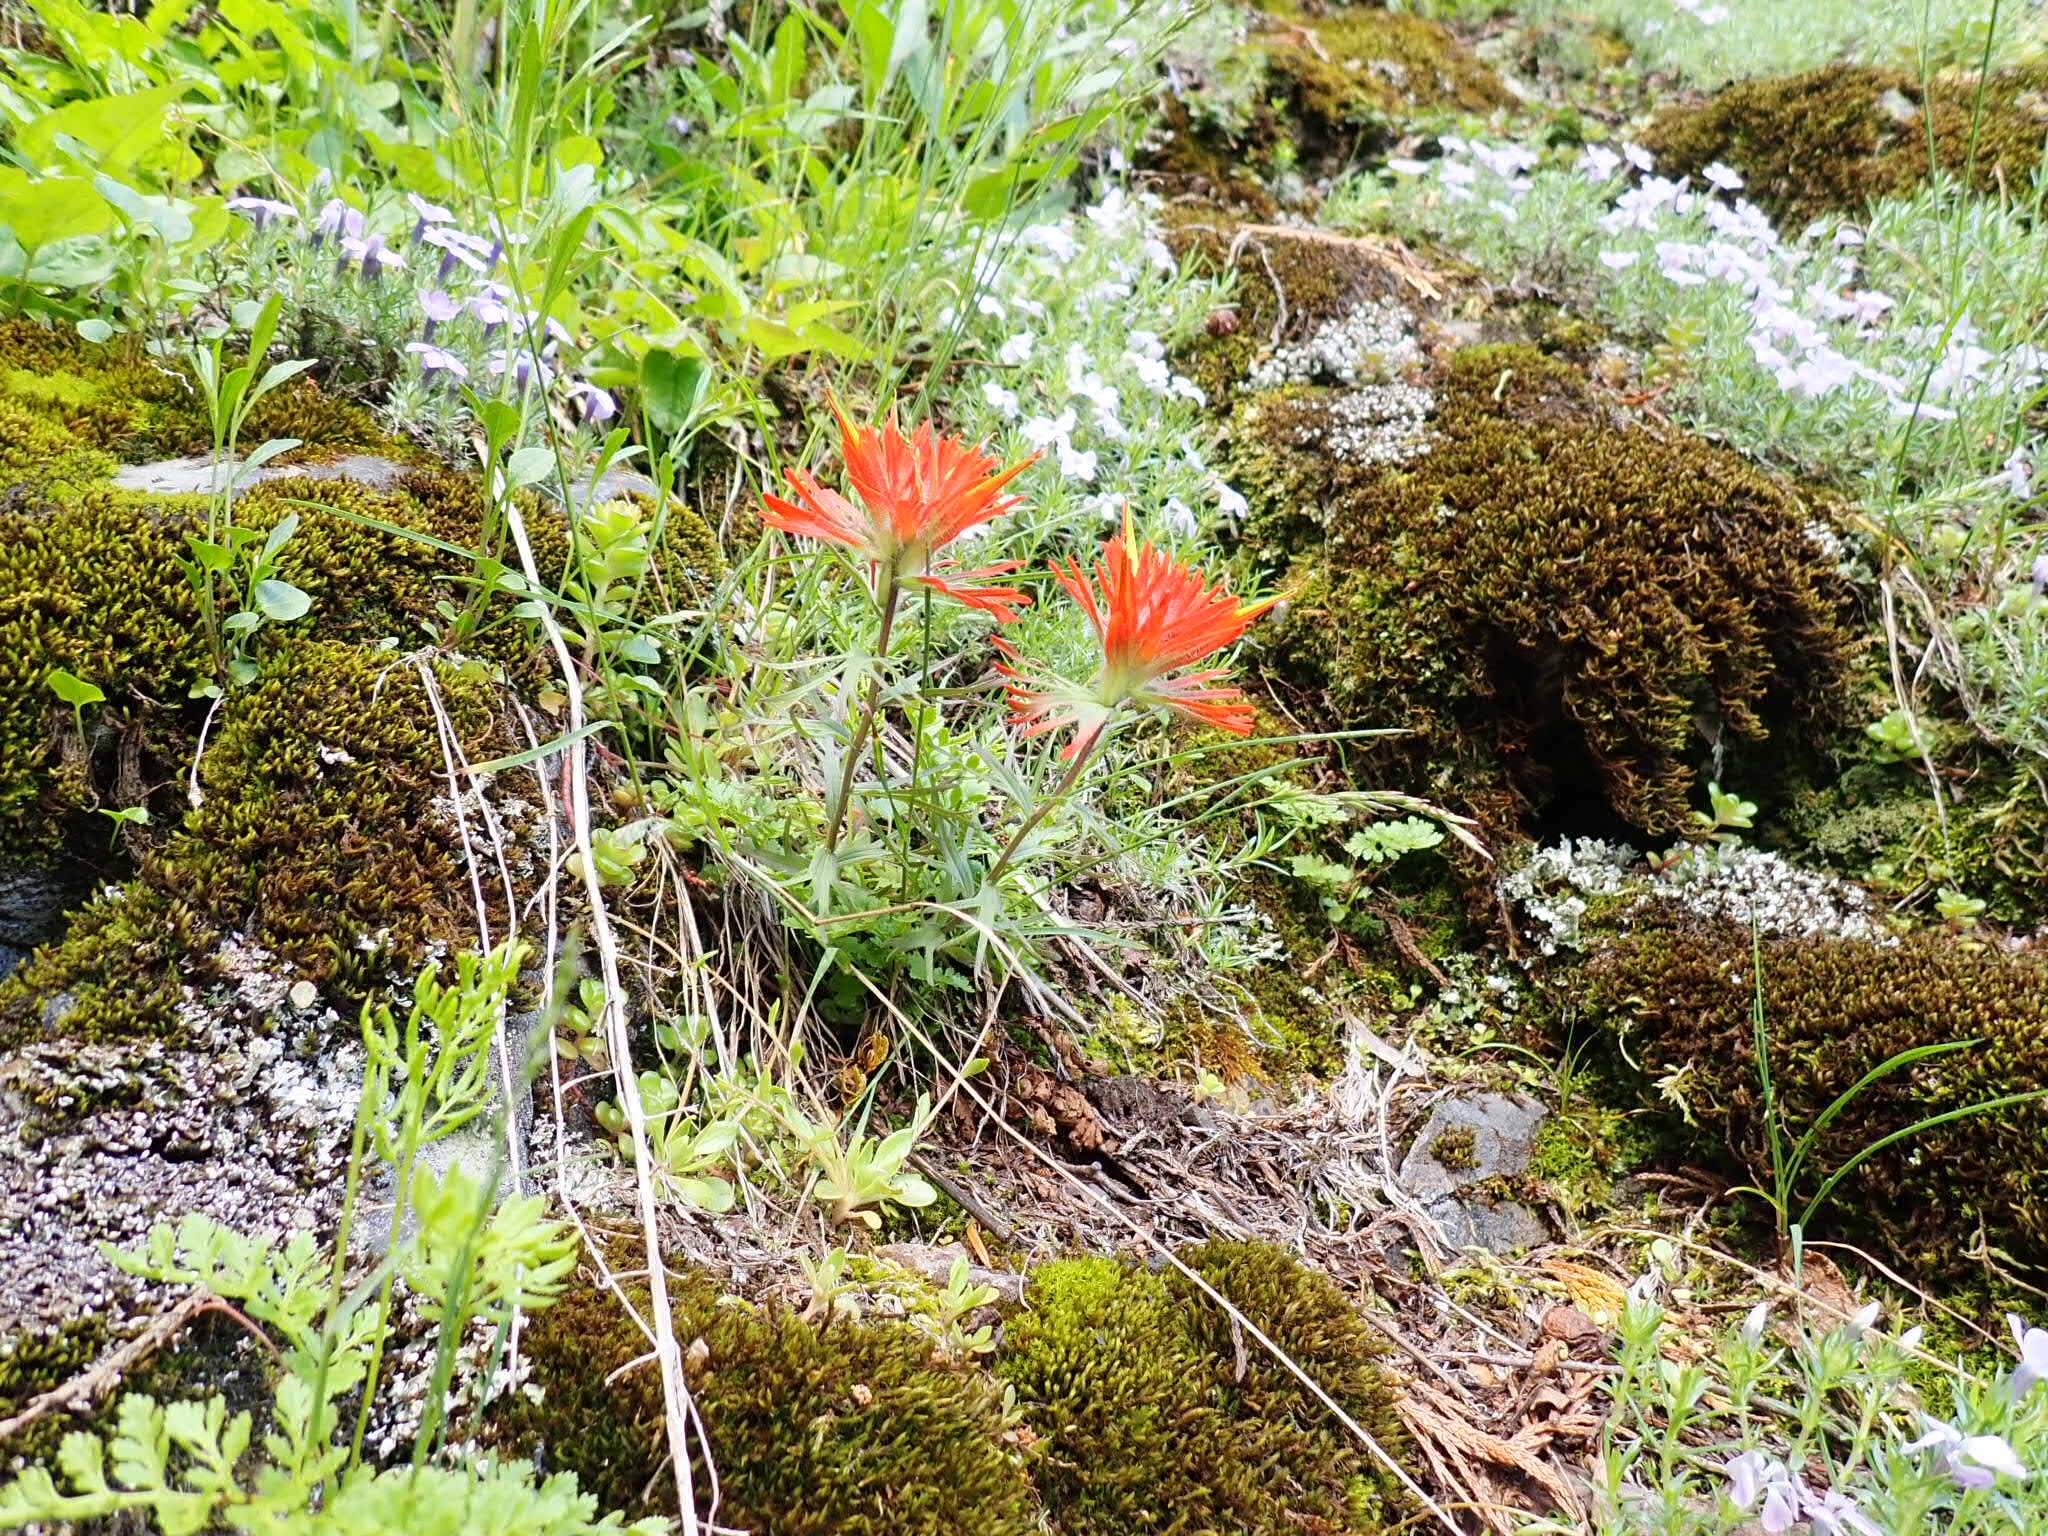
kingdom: Plantae
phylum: Tracheophyta
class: Magnoliopsida
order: Lamiales
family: Orobanchaceae
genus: Castilleja
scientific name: Castilleja rupicola
